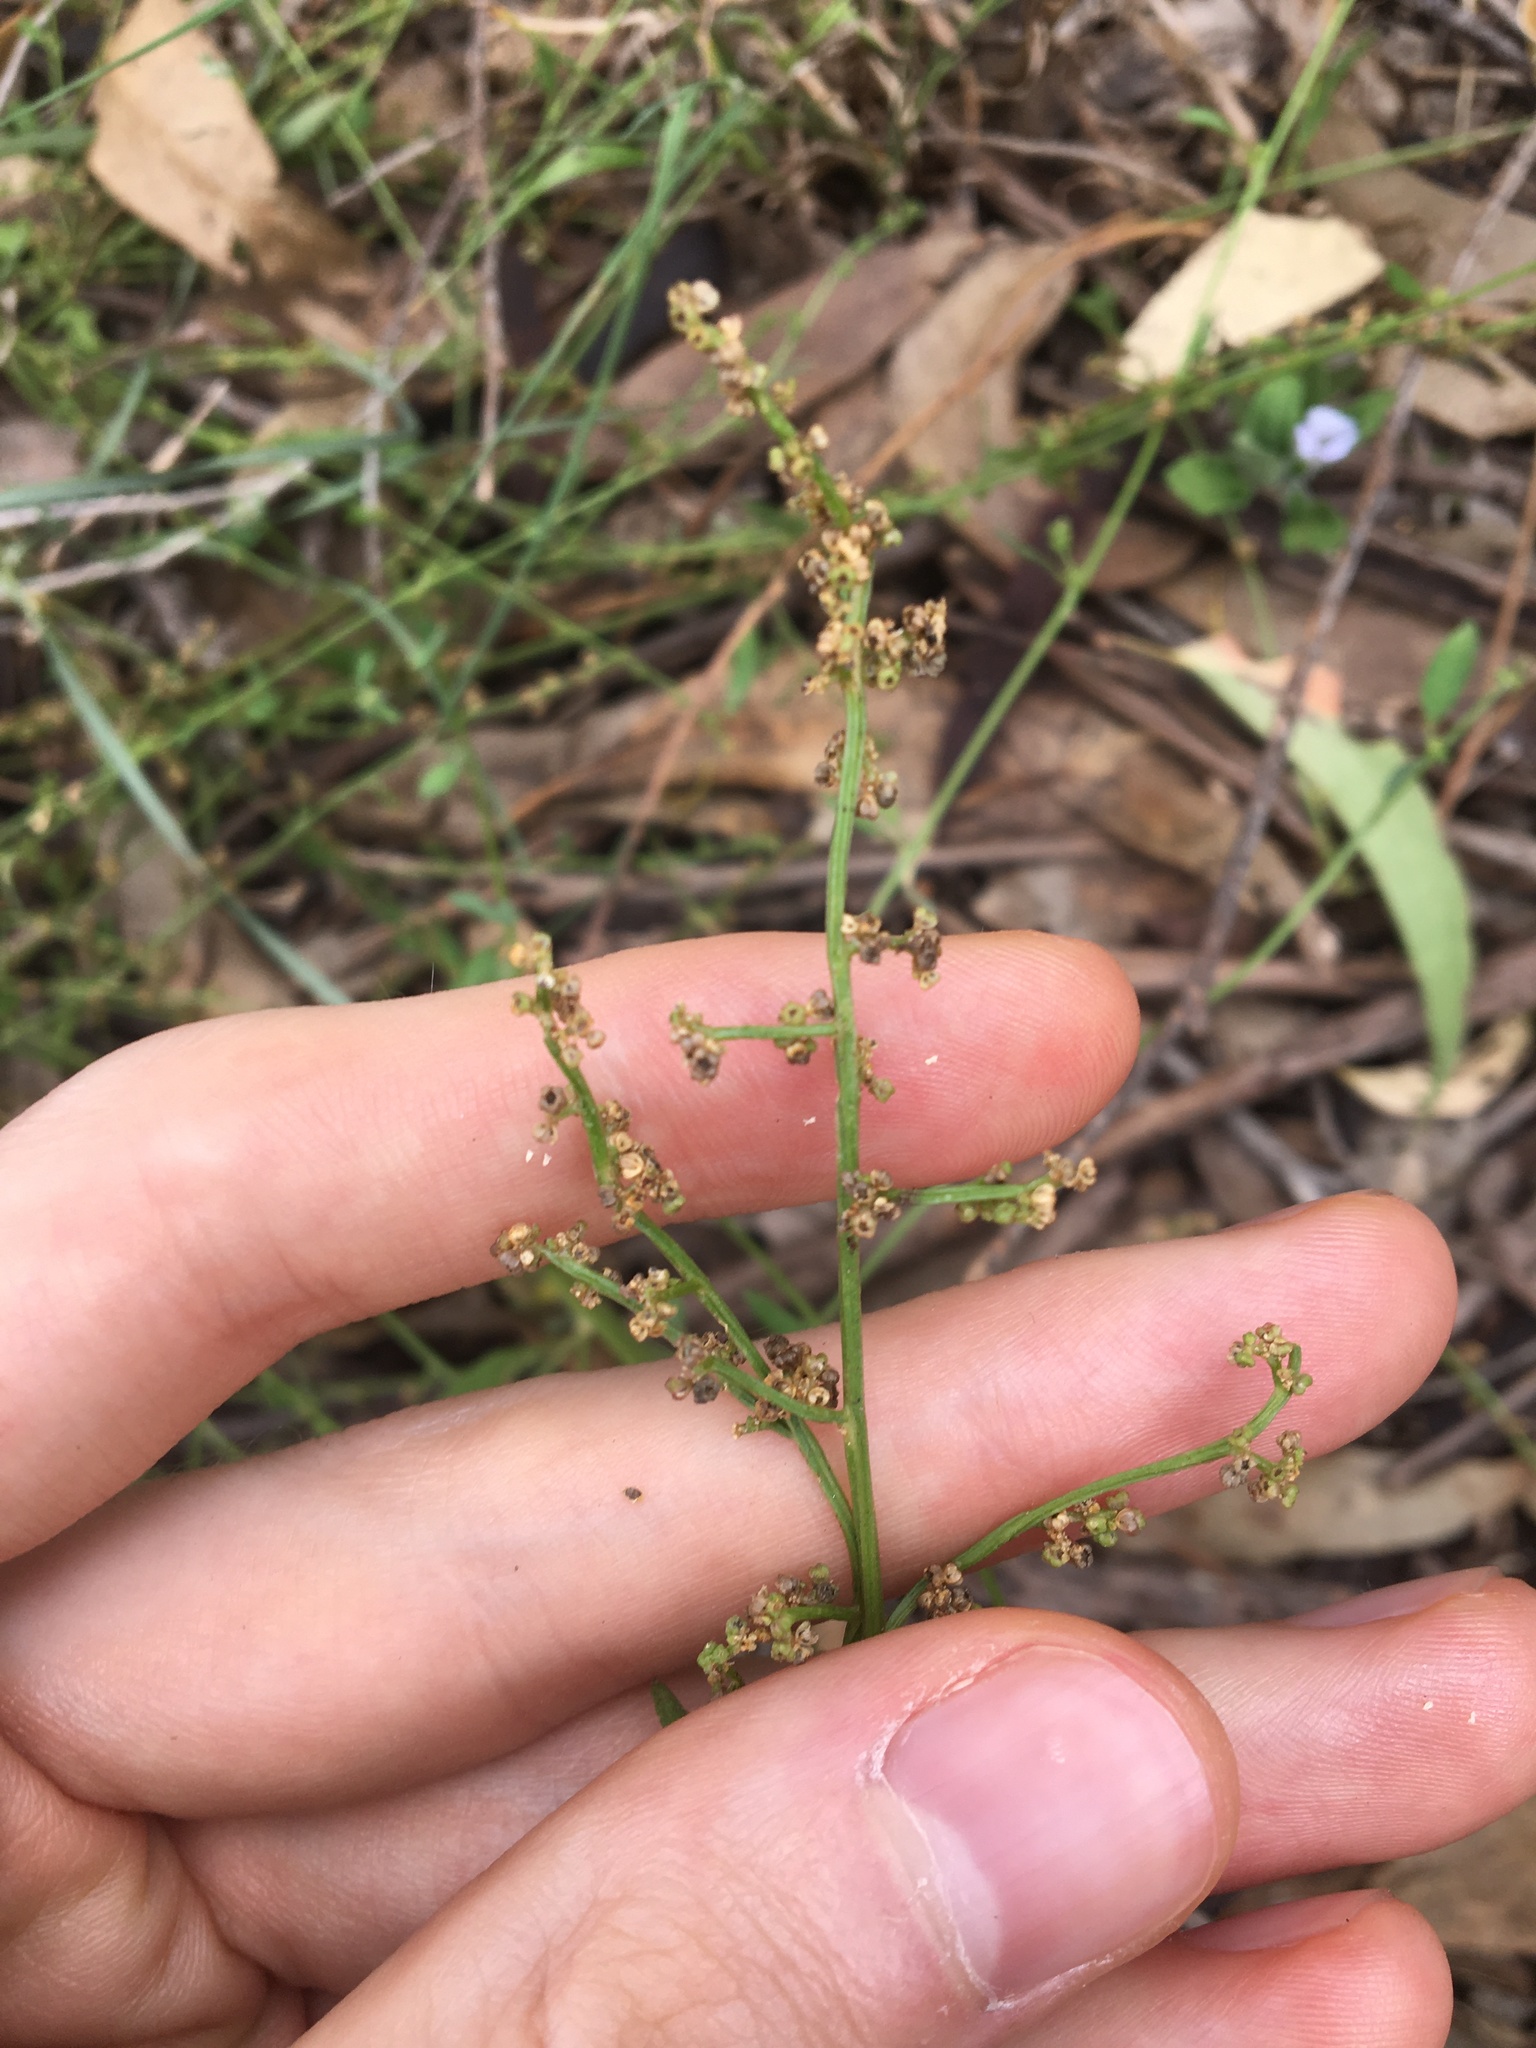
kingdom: Plantae
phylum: Tracheophyta
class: Magnoliopsida
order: Caryophyllales
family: Amaranthaceae
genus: Chenopodium
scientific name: Chenopodium polygonoides
